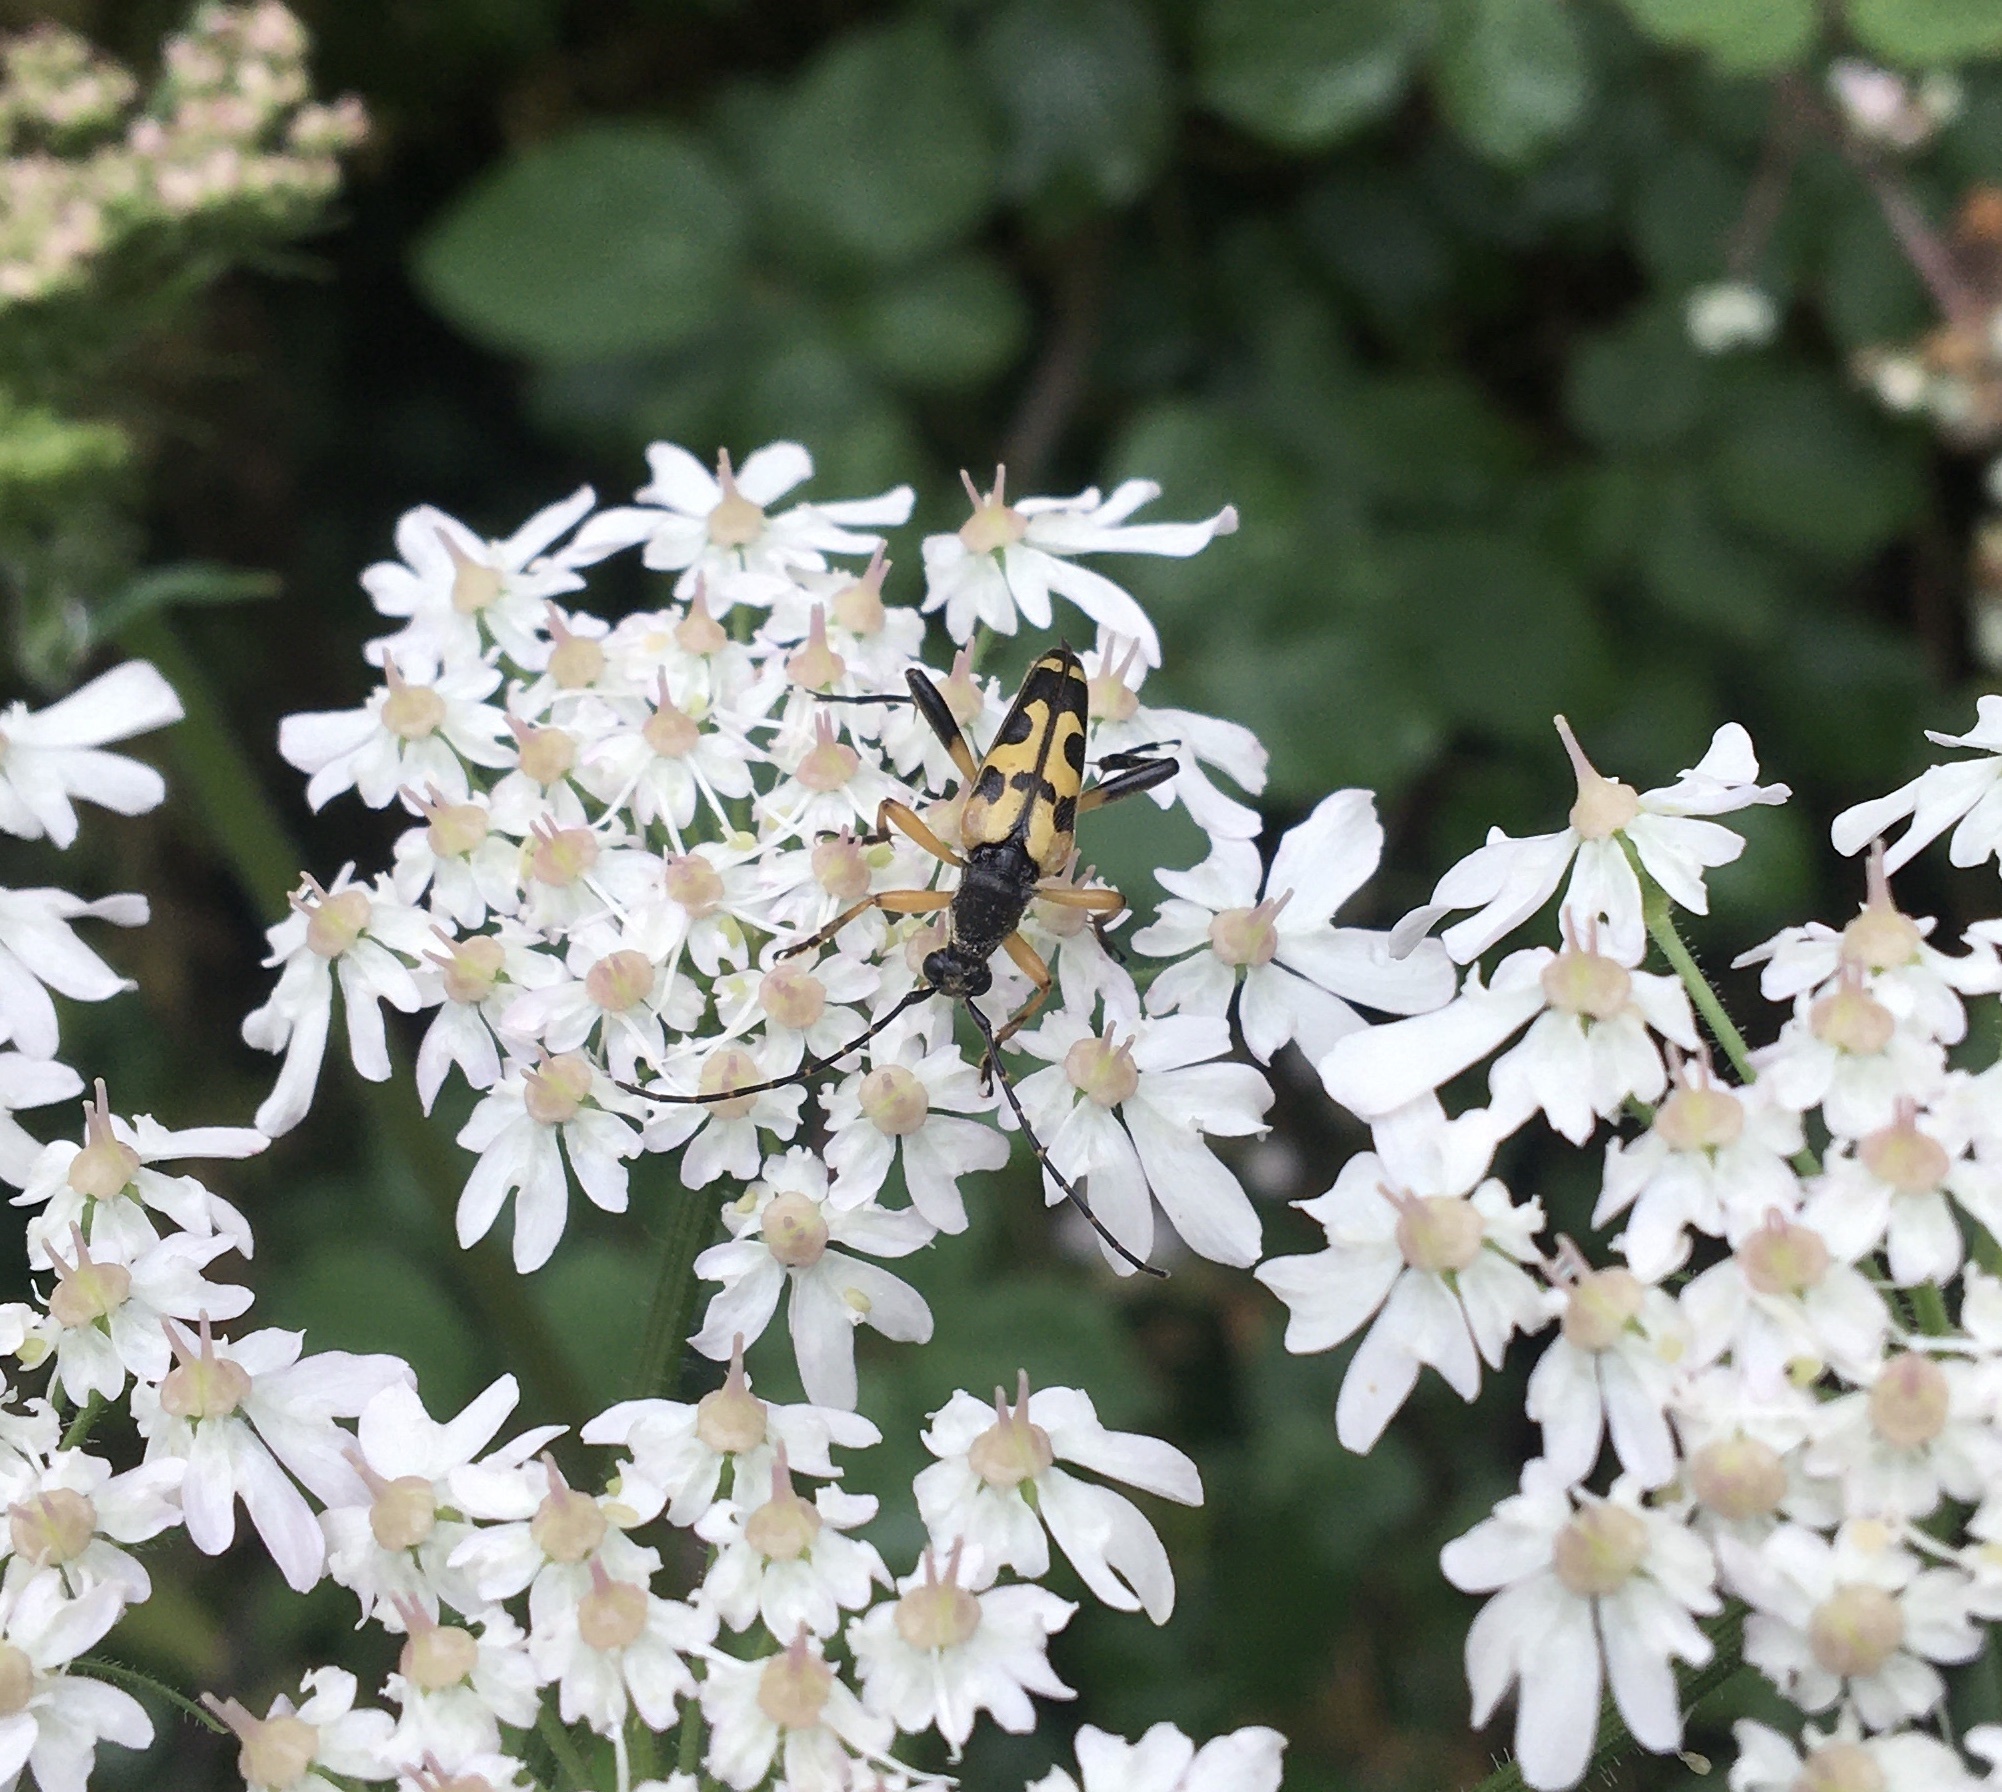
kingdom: Animalia
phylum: Arthropoda
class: Insecta
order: Coleoptera
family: Cerambycidae
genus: Rutpela
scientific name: Rutpela maculata
